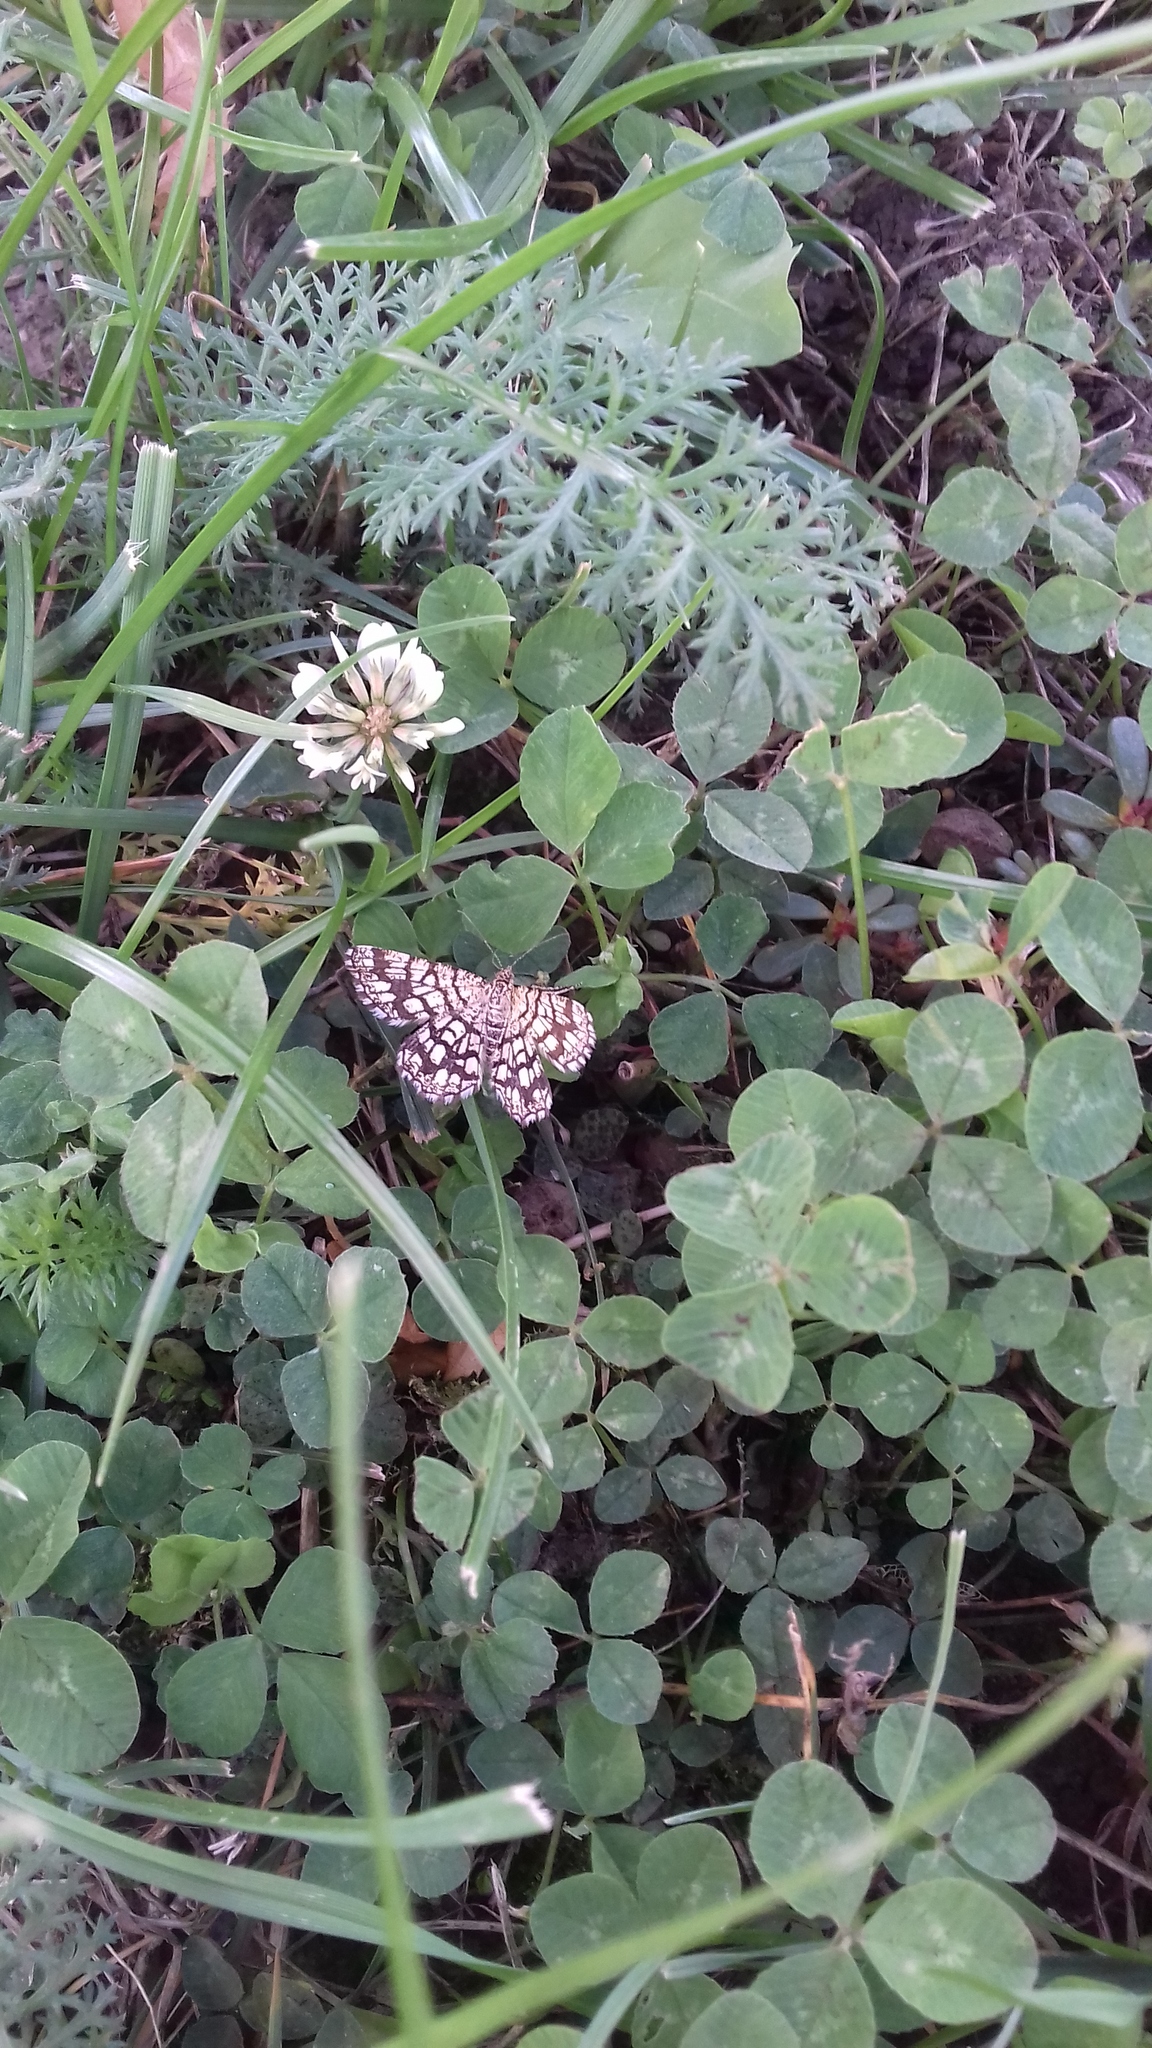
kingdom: Animalia
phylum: Arthropoda
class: Insecta
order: Lepidoptera
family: Geometridae
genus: Chiasmia
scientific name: Chiasmia clathrata
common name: Latticed heath
